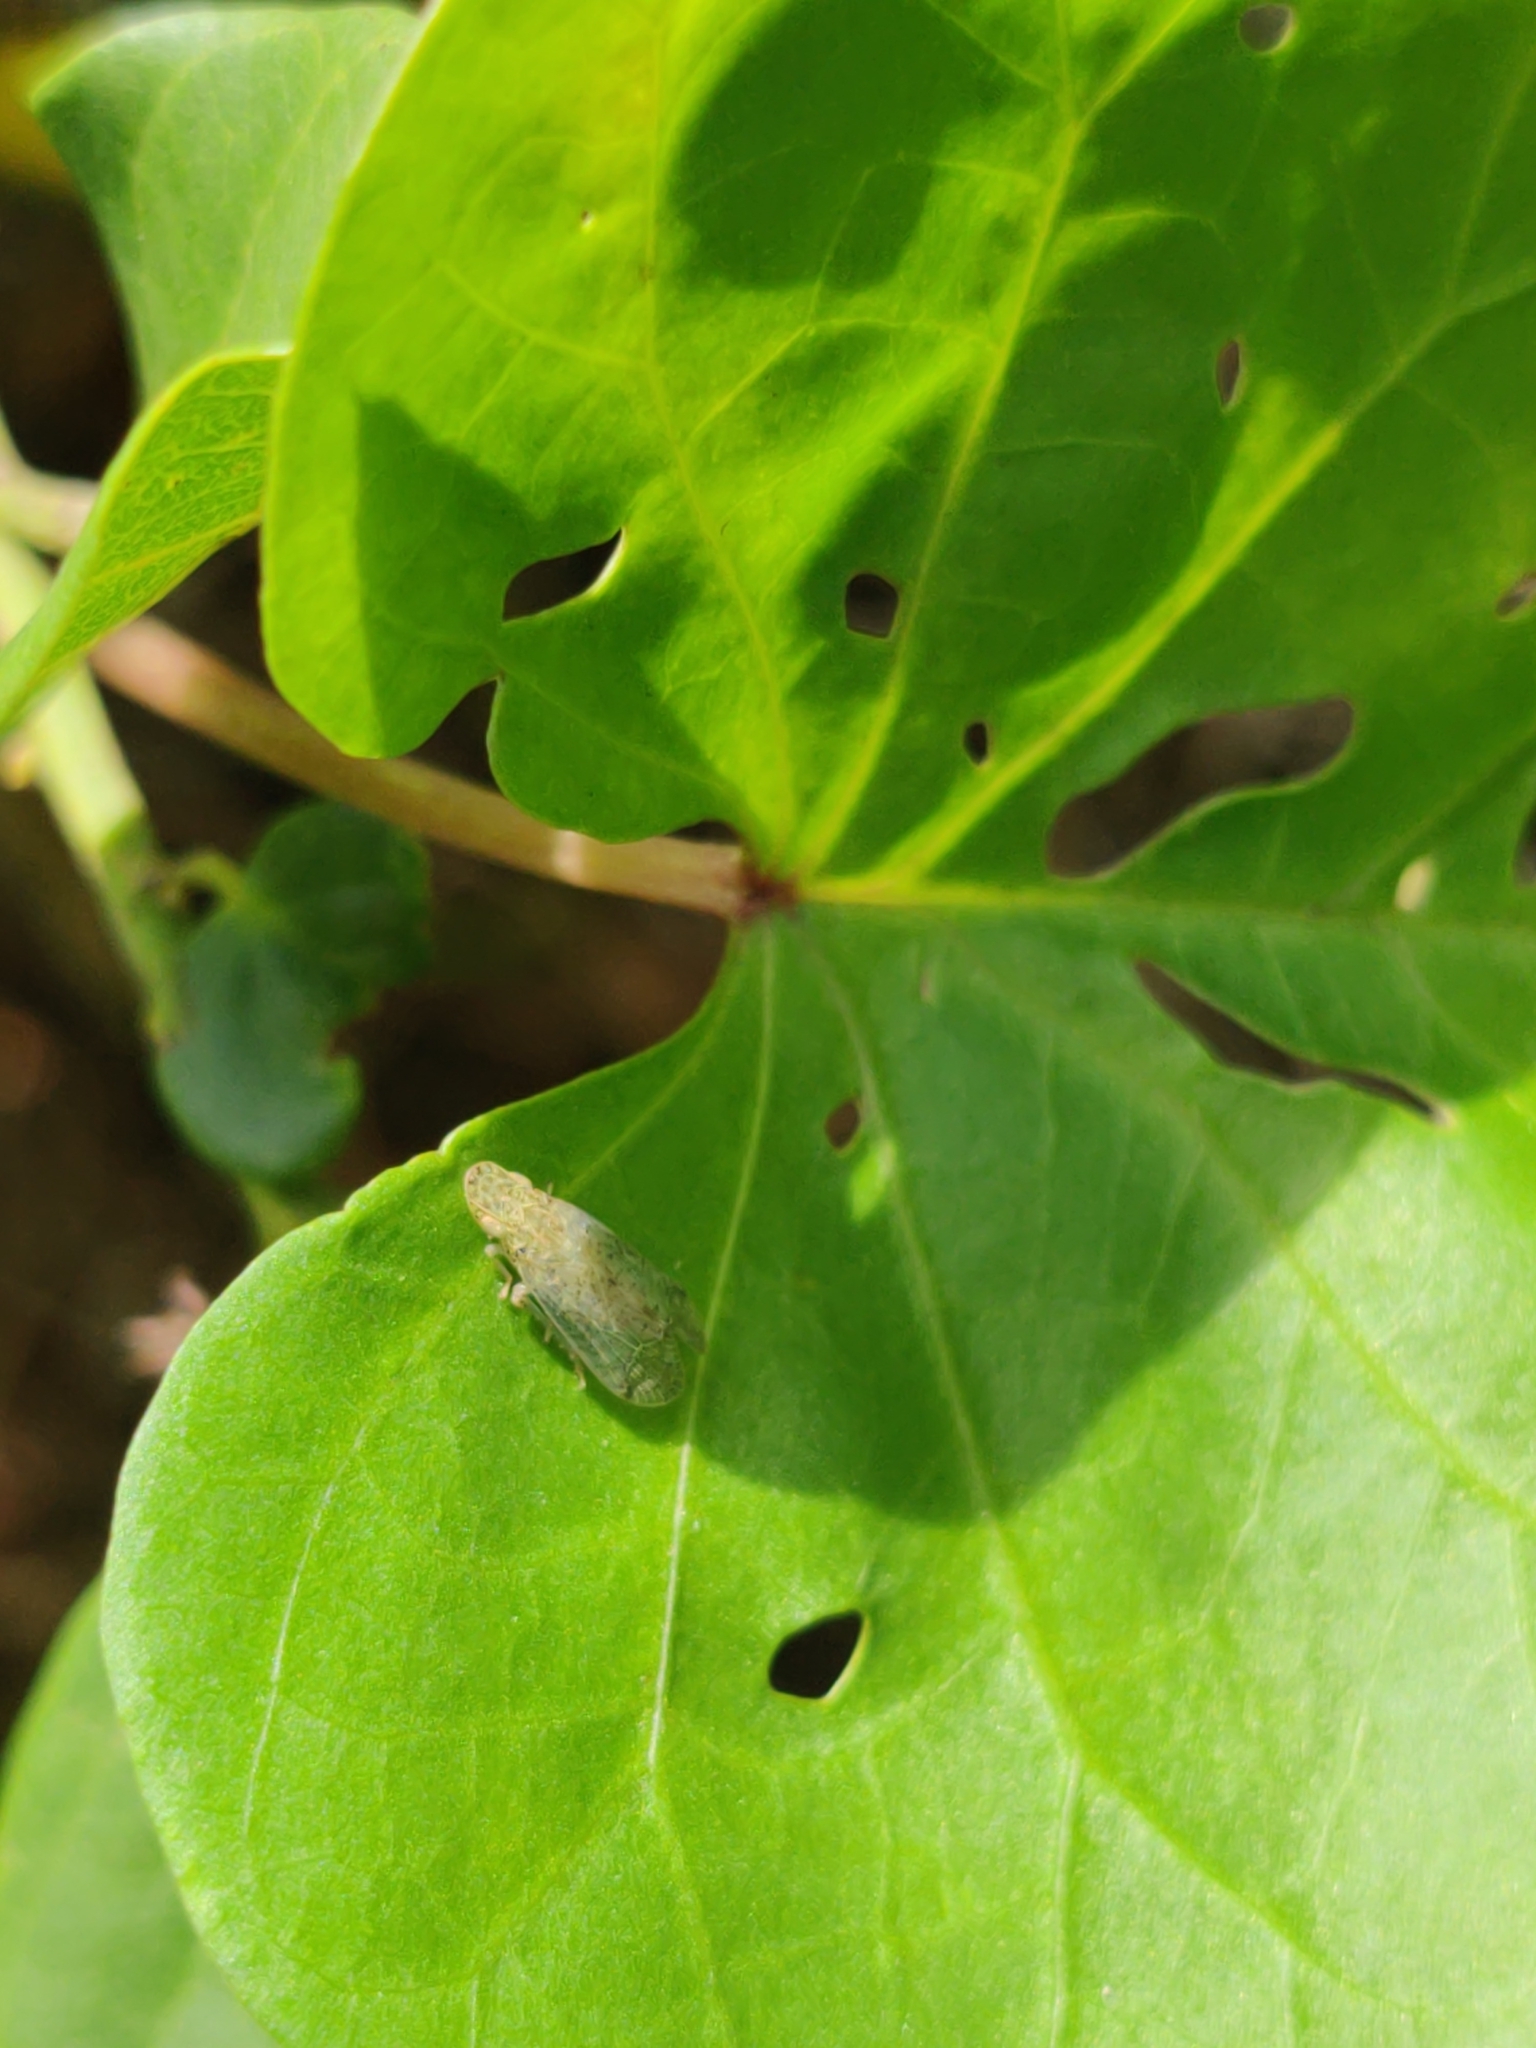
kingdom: Animalia
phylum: Arthropoda
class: Insecta
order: Hemiptera
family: Tropiduchidae
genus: Pelitropis
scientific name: Pelitropis rotulata
